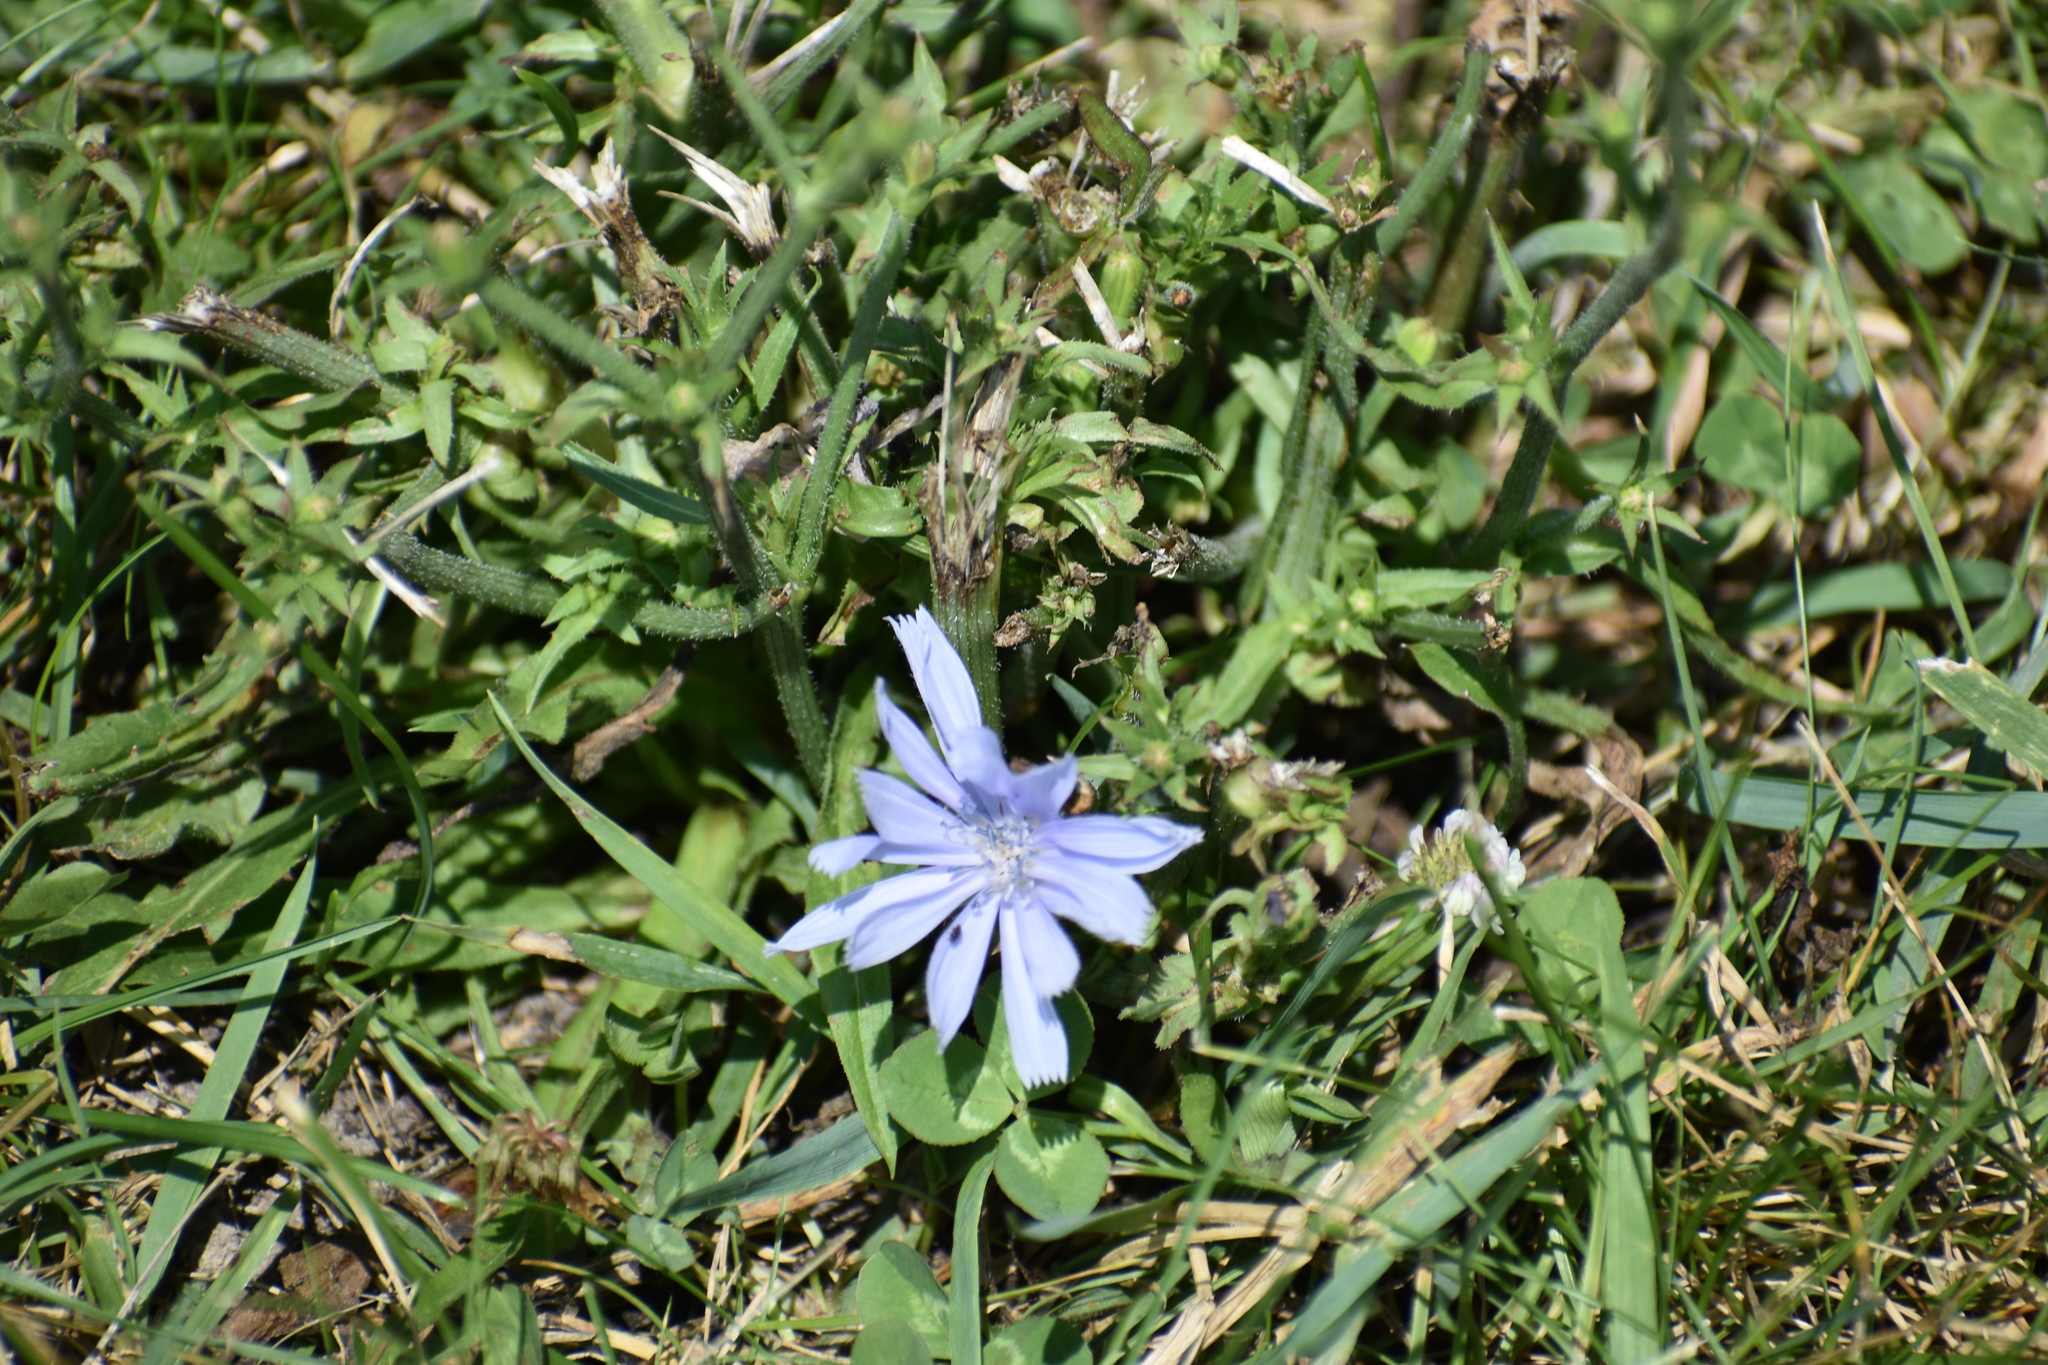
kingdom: Plantae
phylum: Tracheophyta
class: Magnoliopsida
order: Asterales
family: Asteraceae
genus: Cichorium
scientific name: Cichorium intybus
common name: Chicory
